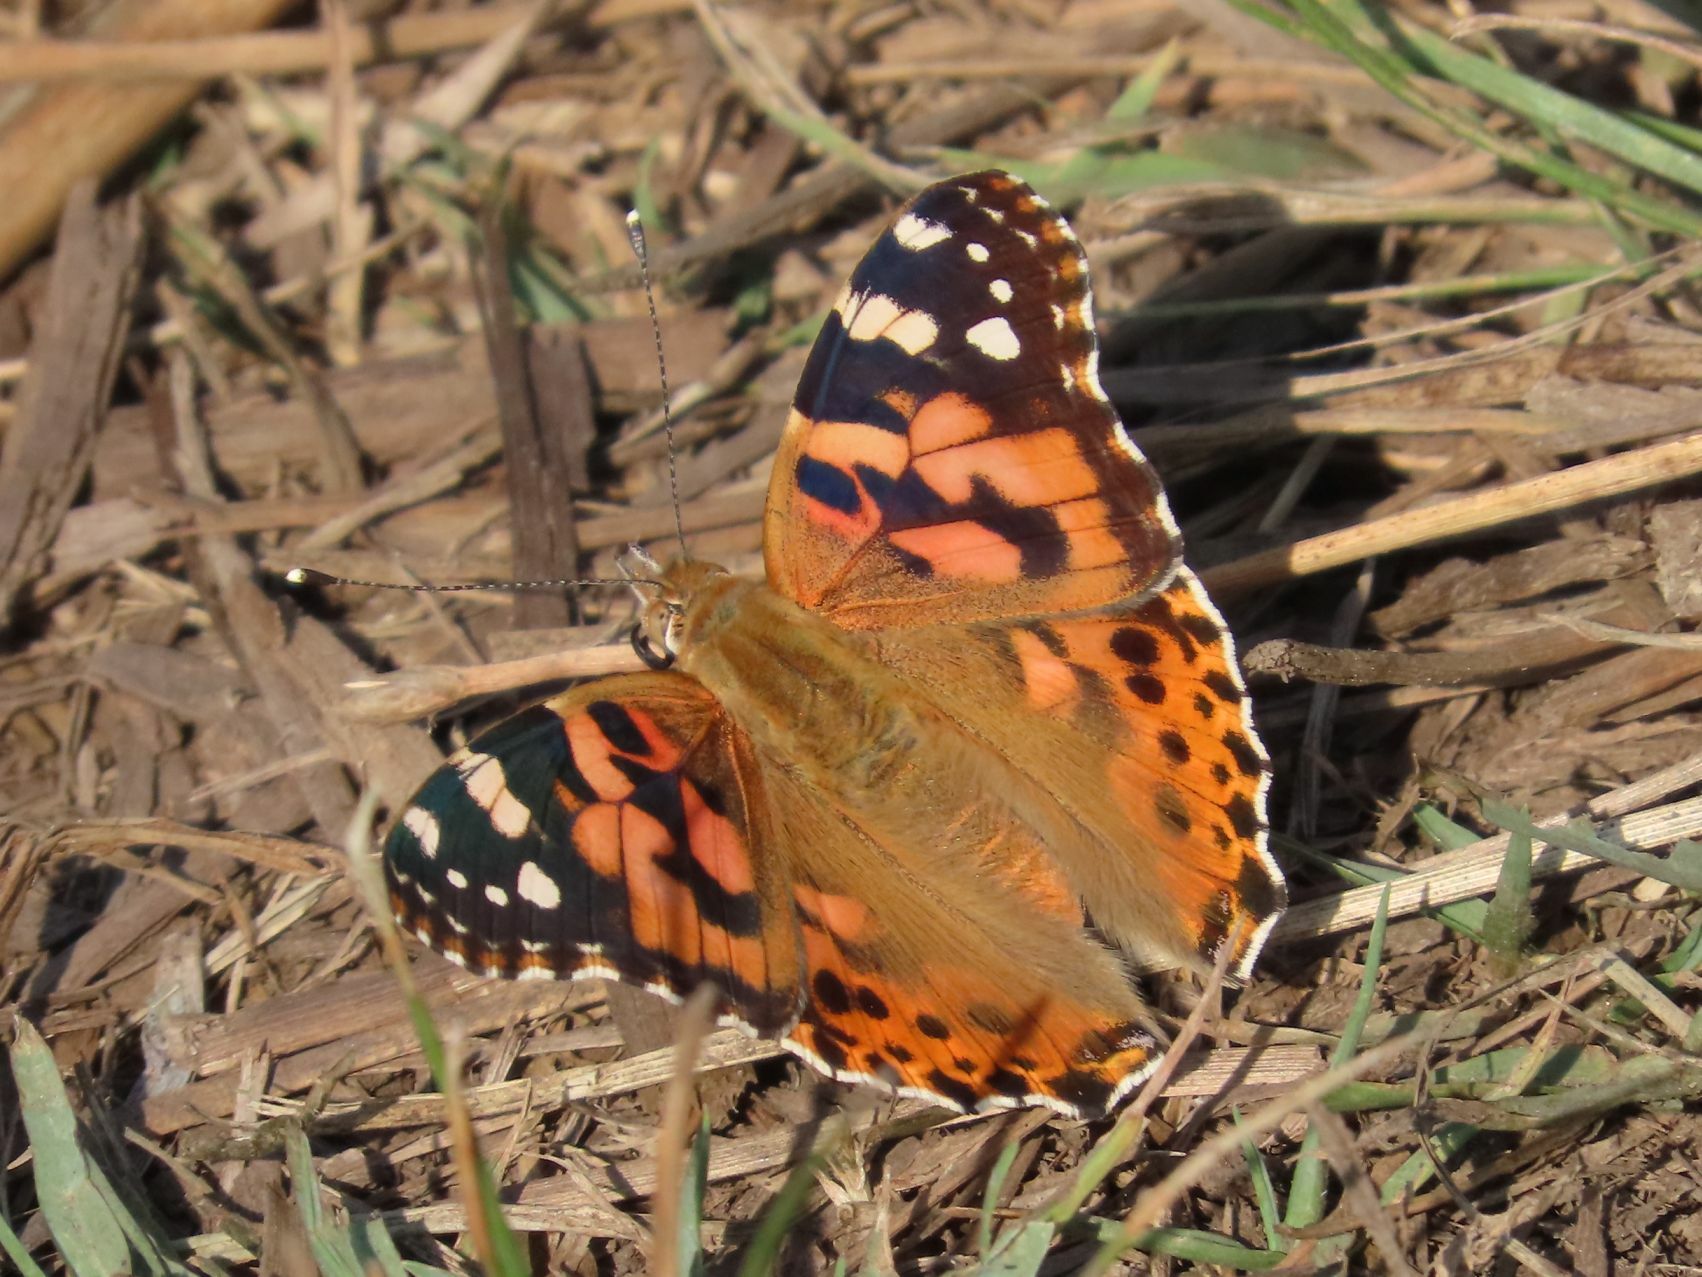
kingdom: Animalia
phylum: Arthropoda
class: Insecta
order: Lepidoptera
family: Nymphalidae
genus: Vanessa
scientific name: Vanessa cardui
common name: Painted lady
